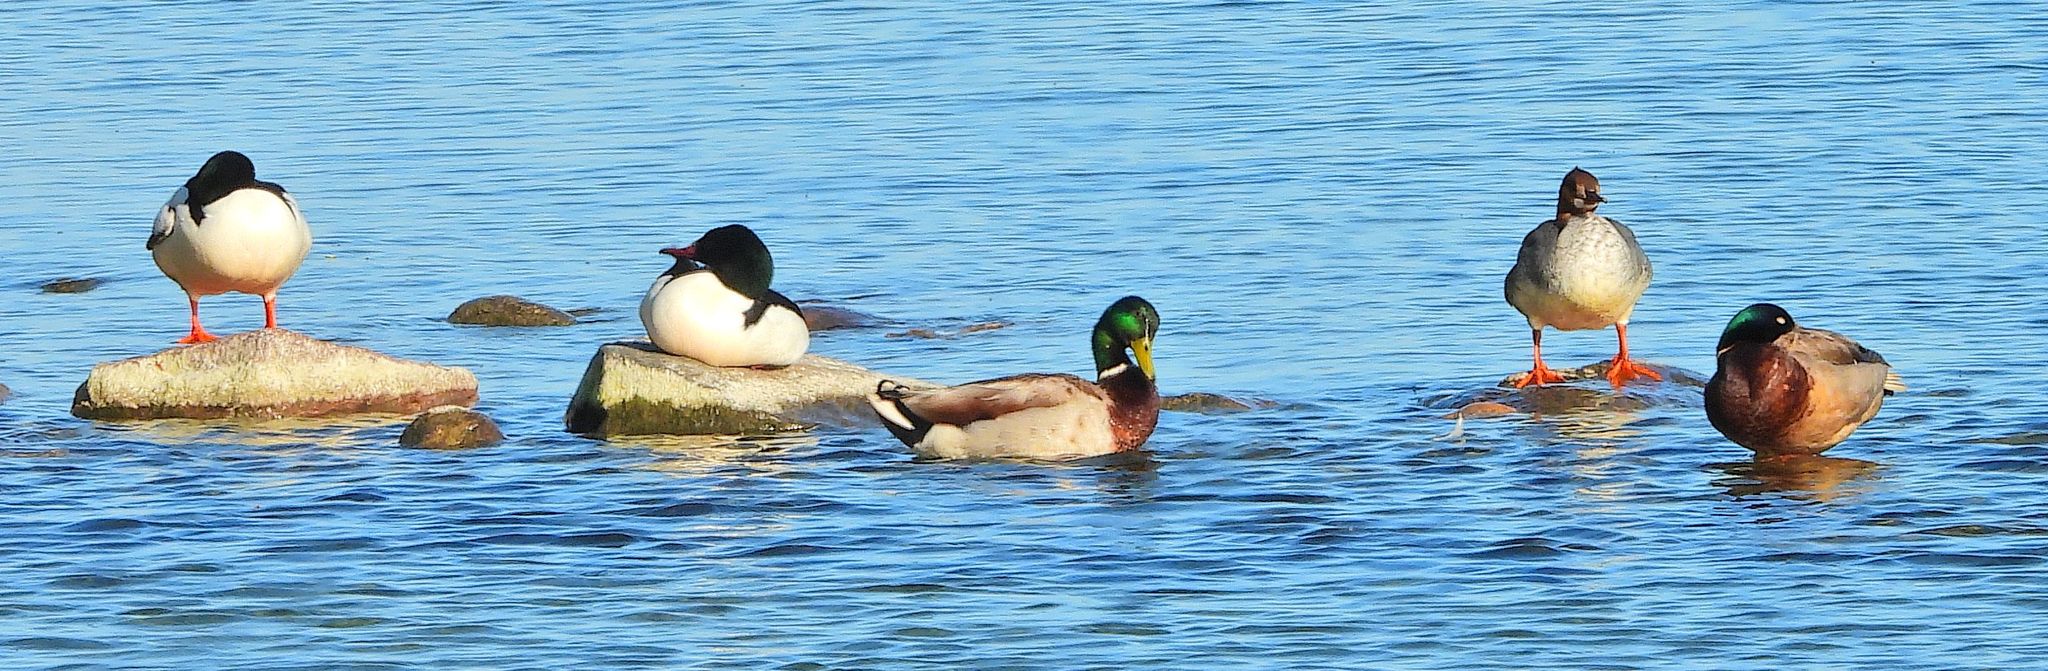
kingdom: Animalia
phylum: Chordata
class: Aves
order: Anseriformes
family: Anatidae
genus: Mergus
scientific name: Mergus merganser
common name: Common merganser
